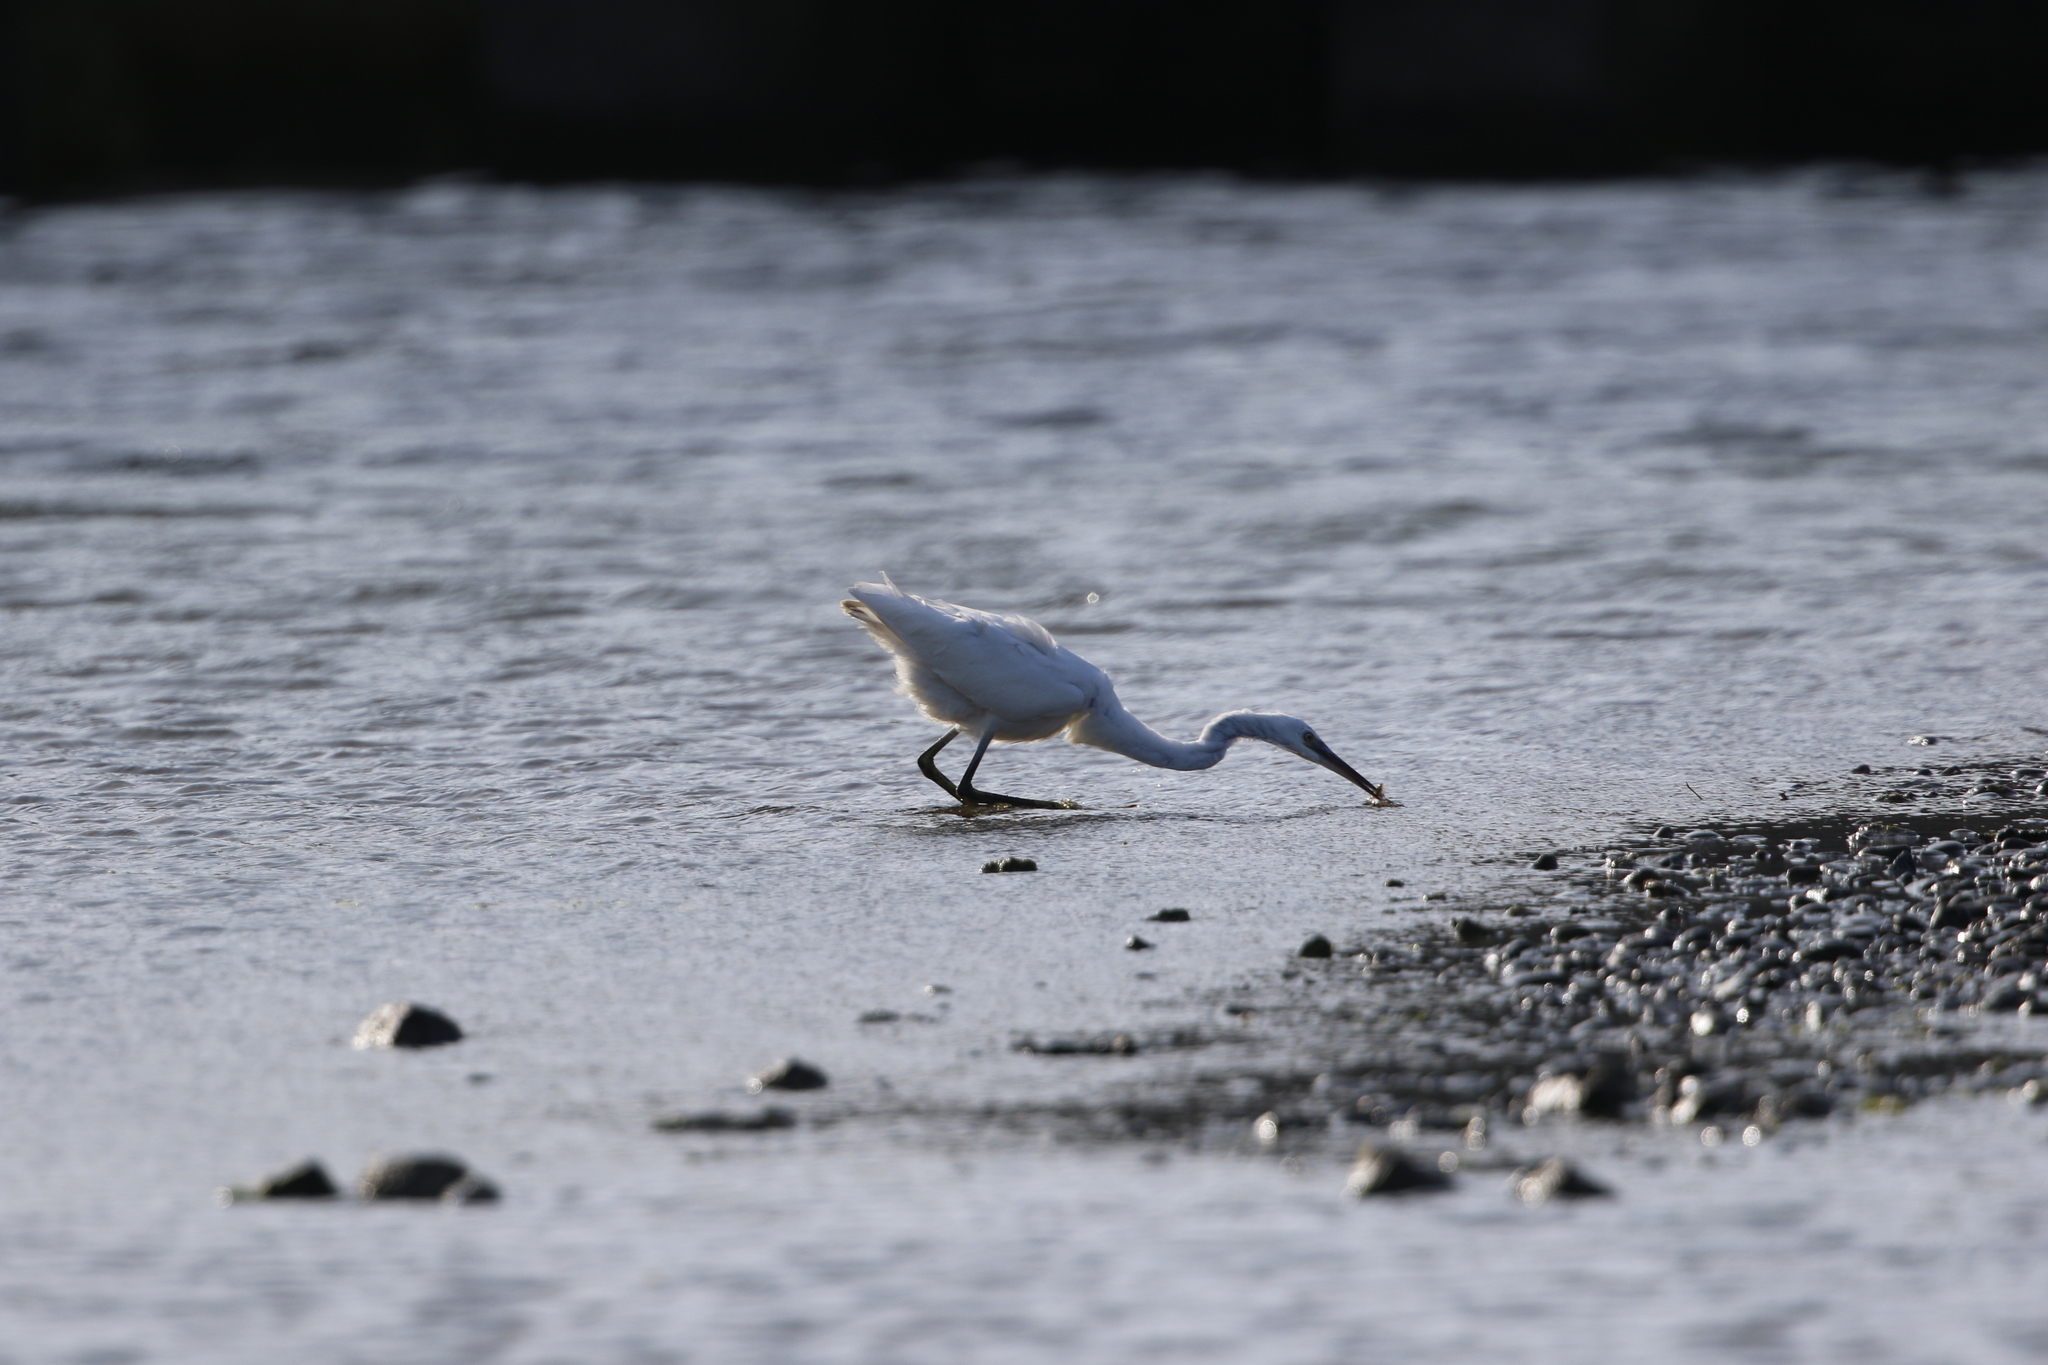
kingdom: Animalia
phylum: Chordata
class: Aves
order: Pelecaniformes
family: Ardeidae
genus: Egretta
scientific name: Egretta garzetta
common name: Little egret
